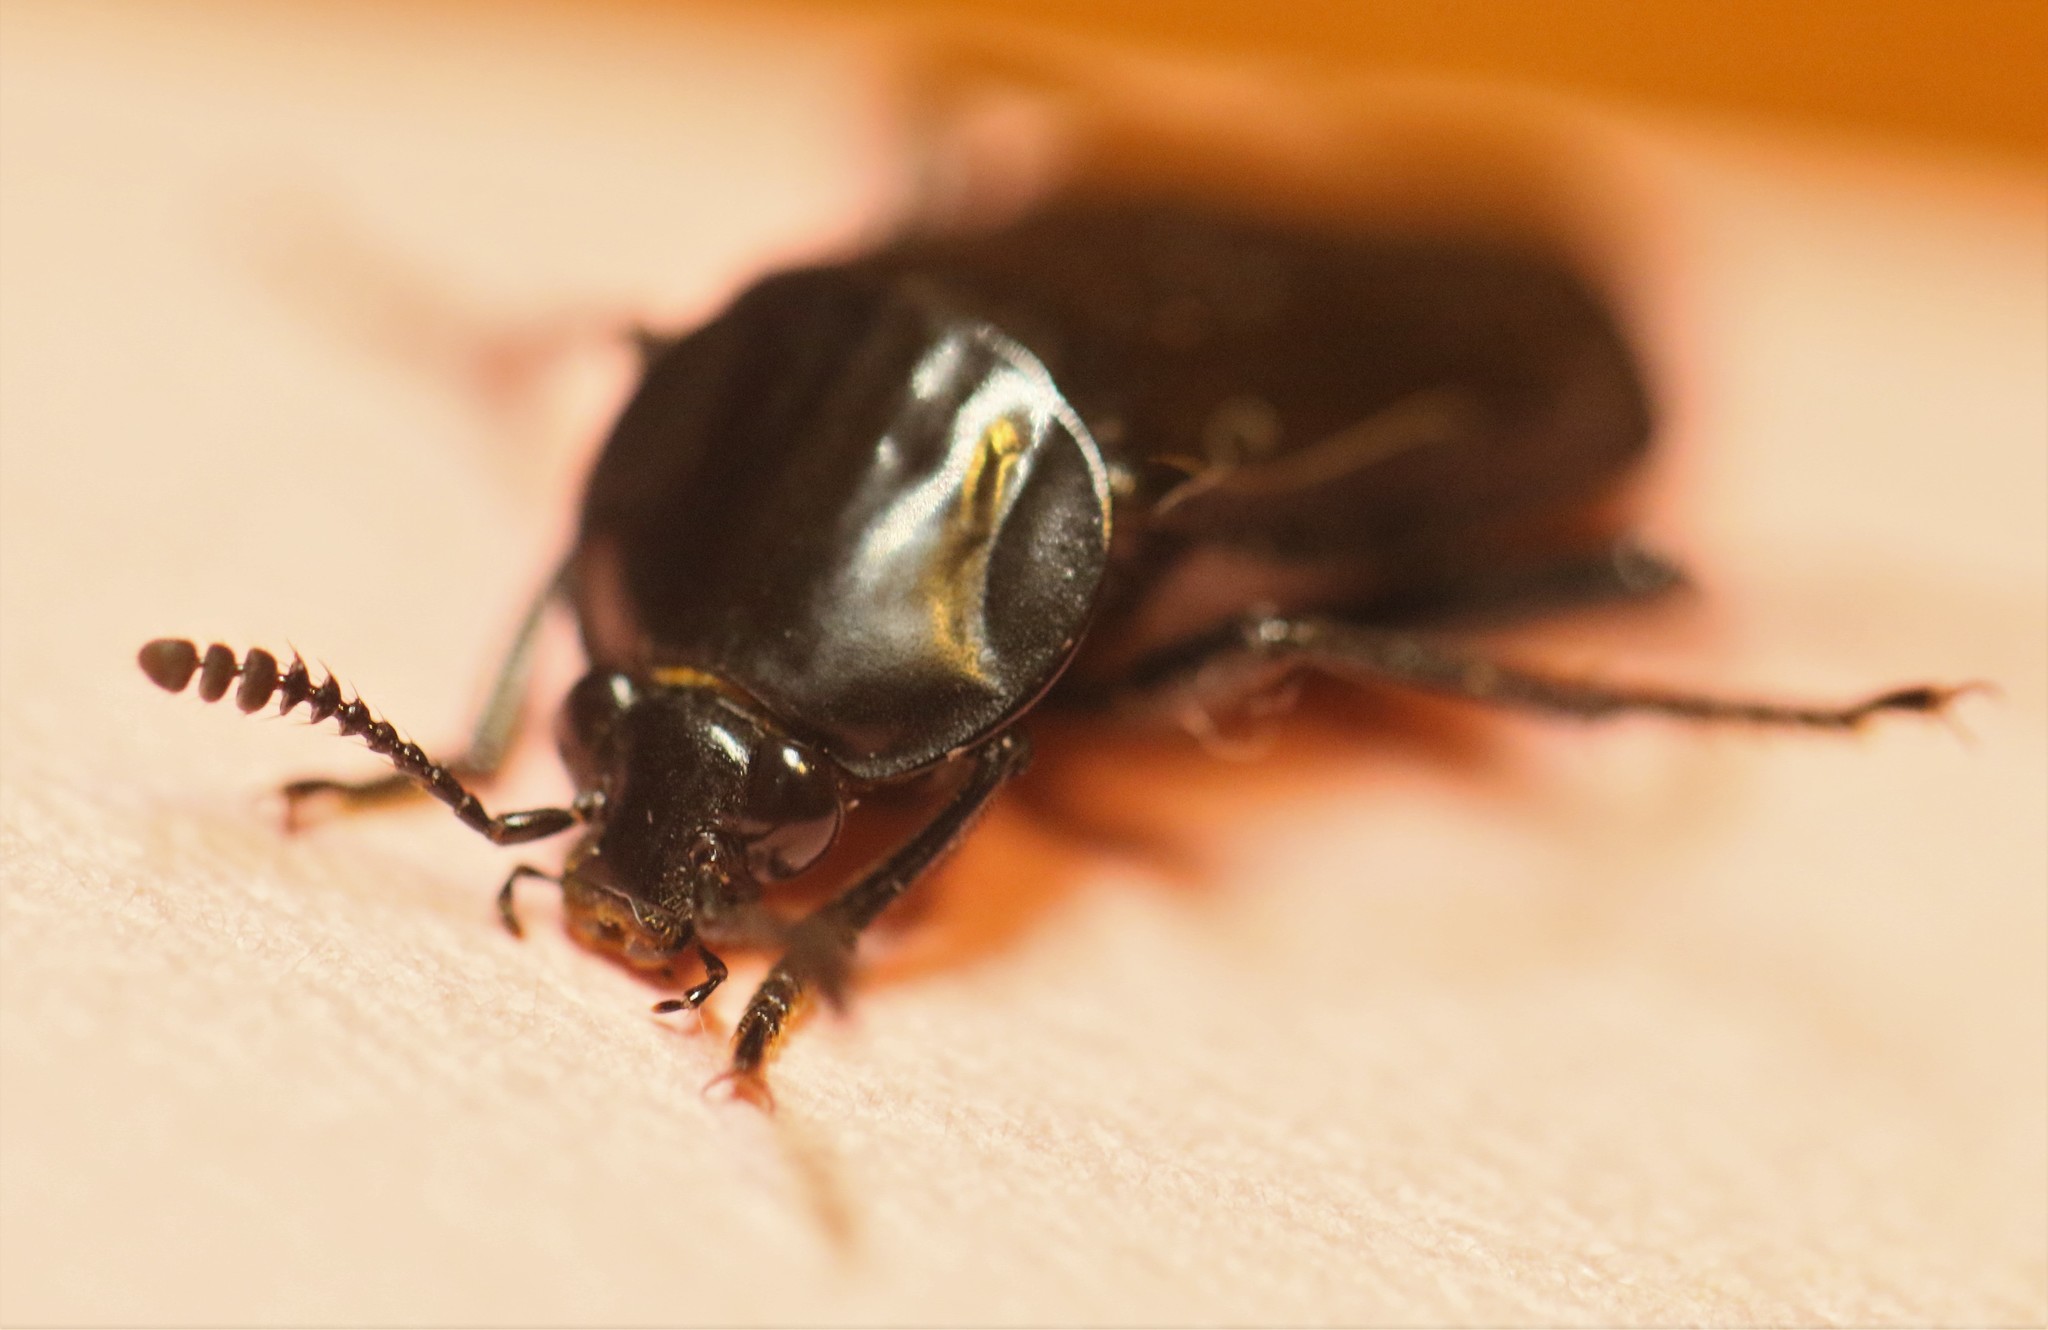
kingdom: Animalia
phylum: Arthropoda
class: Insecta
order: Coleoptera
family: Staphylinidae
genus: Necrodes
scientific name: Necrodes surinamensis
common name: Red-lined carrion beetle
